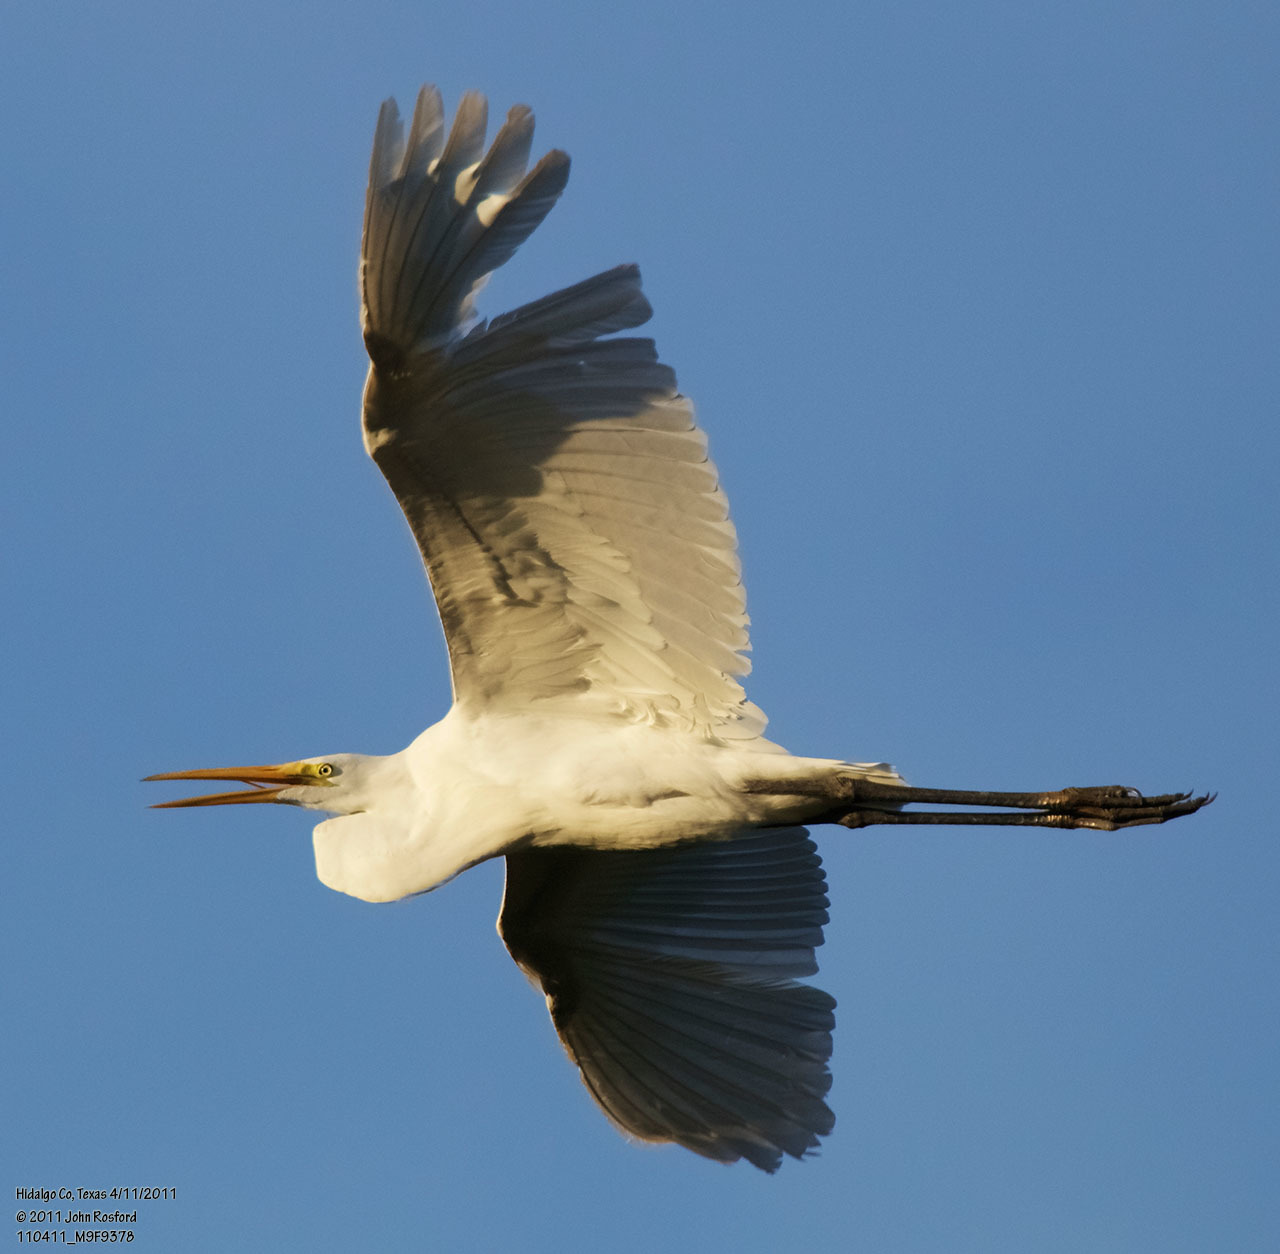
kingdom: Animalia
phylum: Chordata
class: Aves
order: Pelecaniformes
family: Ardeidae
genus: Ardea
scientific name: Ardea alba
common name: Great egret
